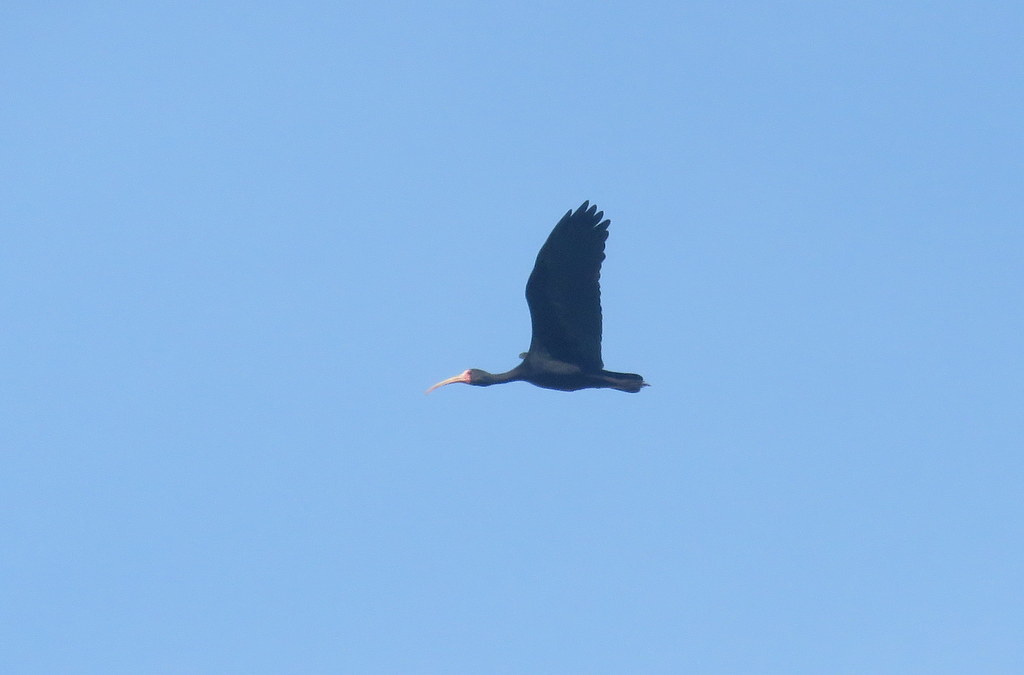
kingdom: Animalia
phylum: Chordata
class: Aves
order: Pelecaniformes
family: Threskiornithidae
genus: Phimosus
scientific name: Phimosus infuscatus
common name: Bare-faced ibis
